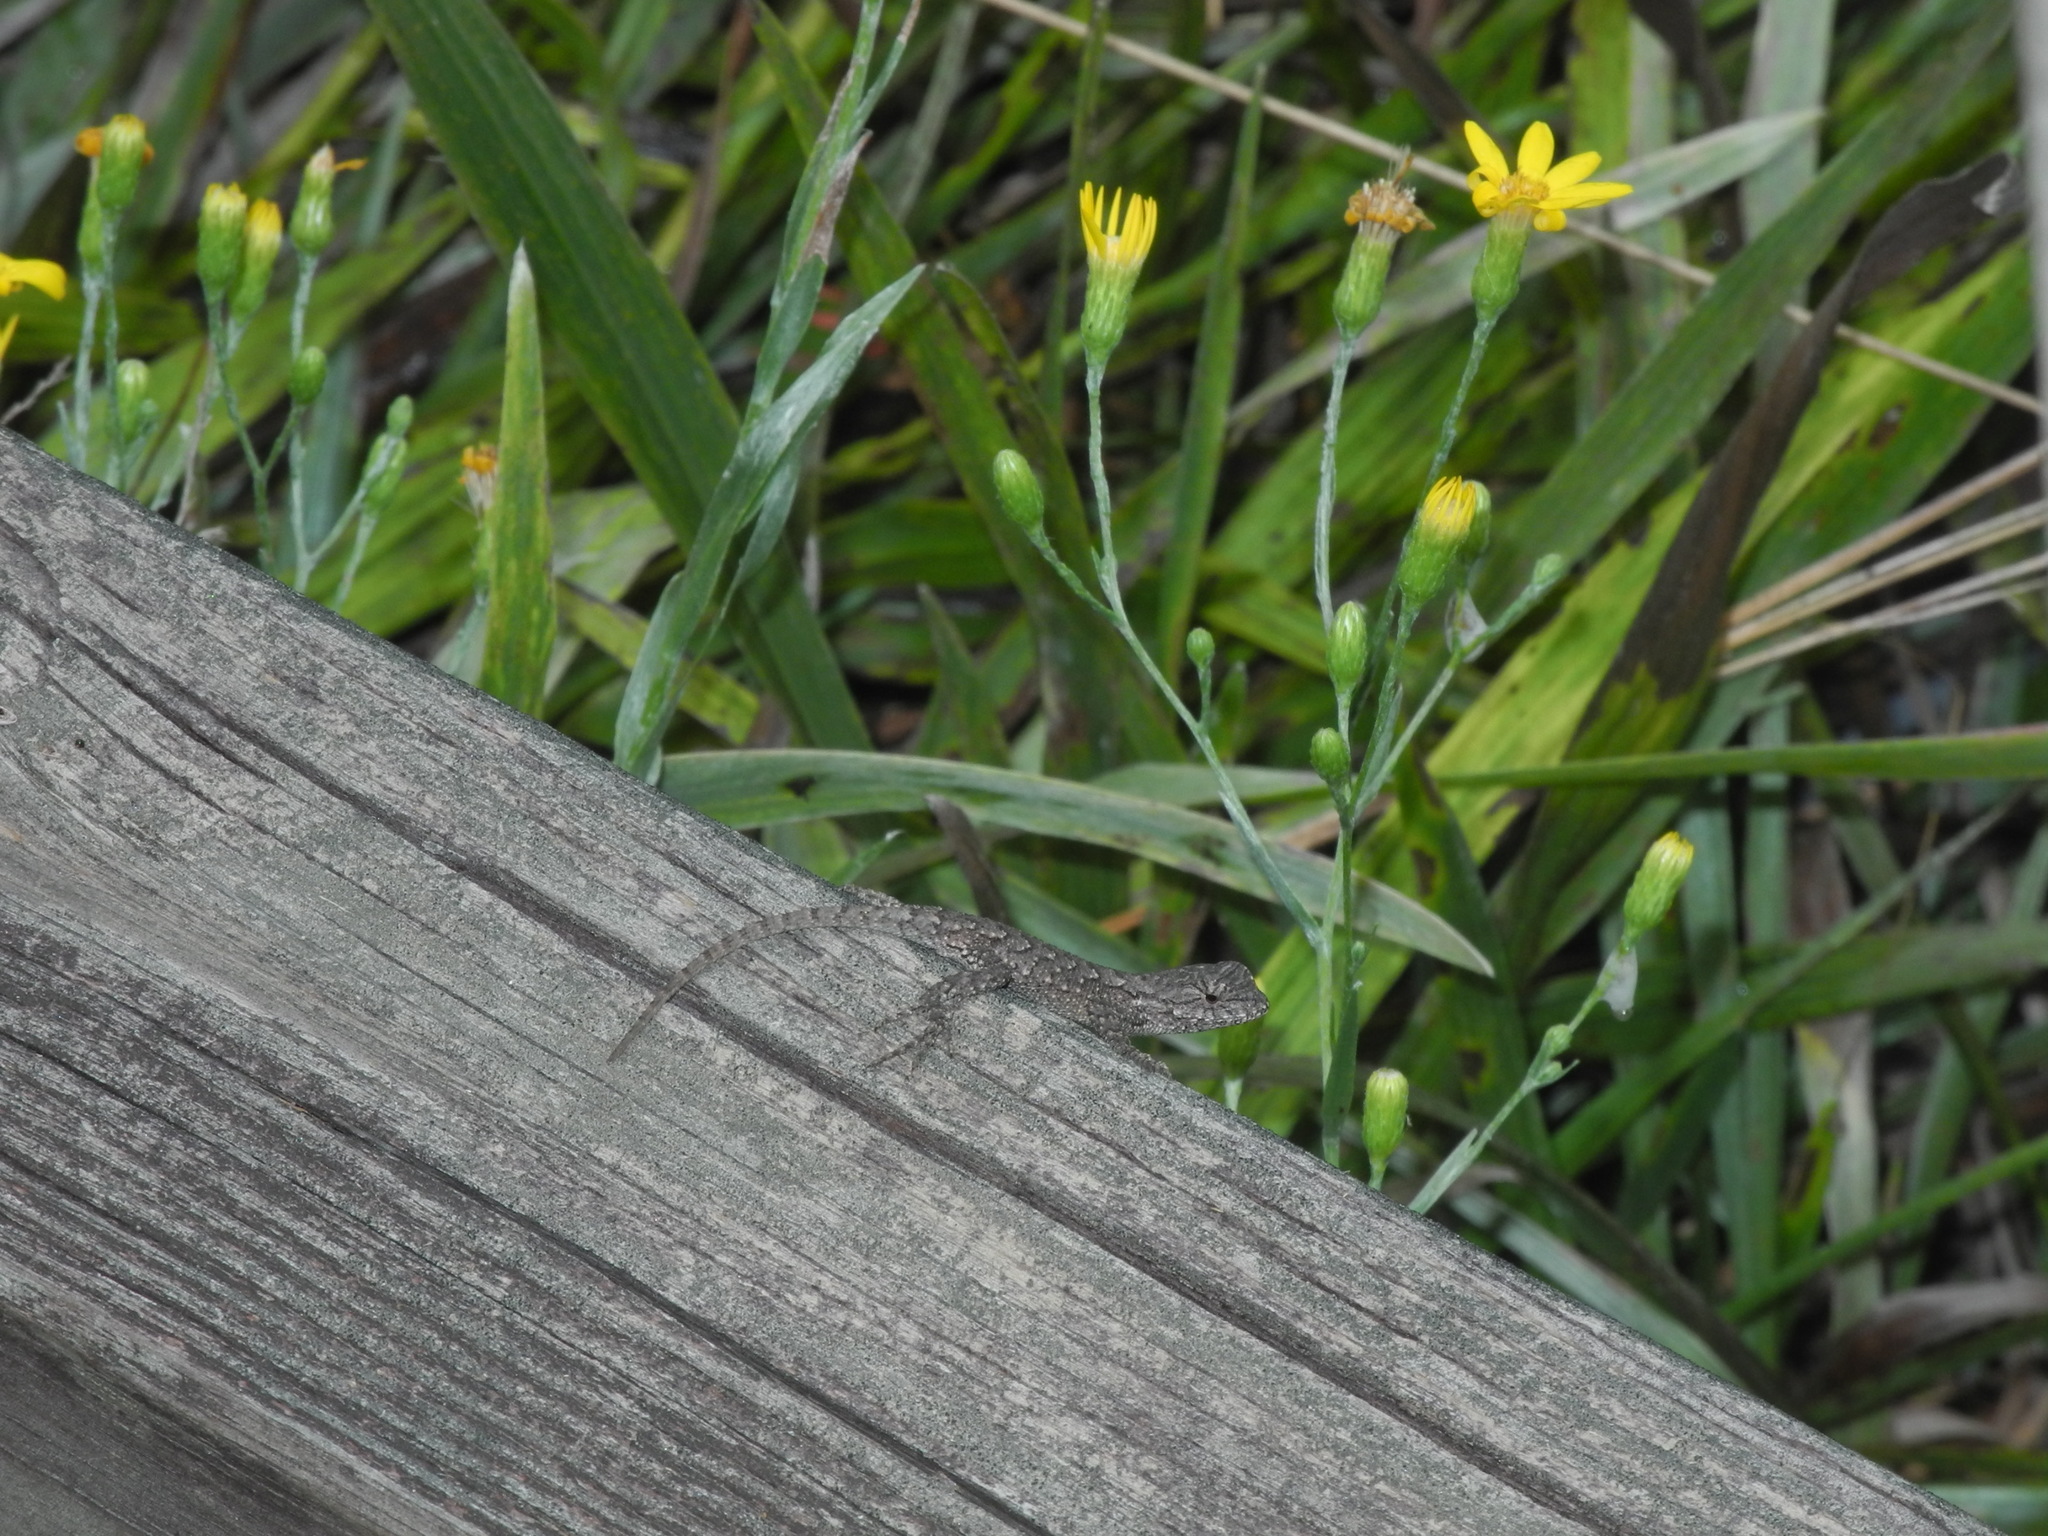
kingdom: Animalia
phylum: Chordata
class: Squamata
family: Phrynosomatidae
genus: Sceloporus
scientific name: Sceloporus undulatus
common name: Eastern fence lizard
